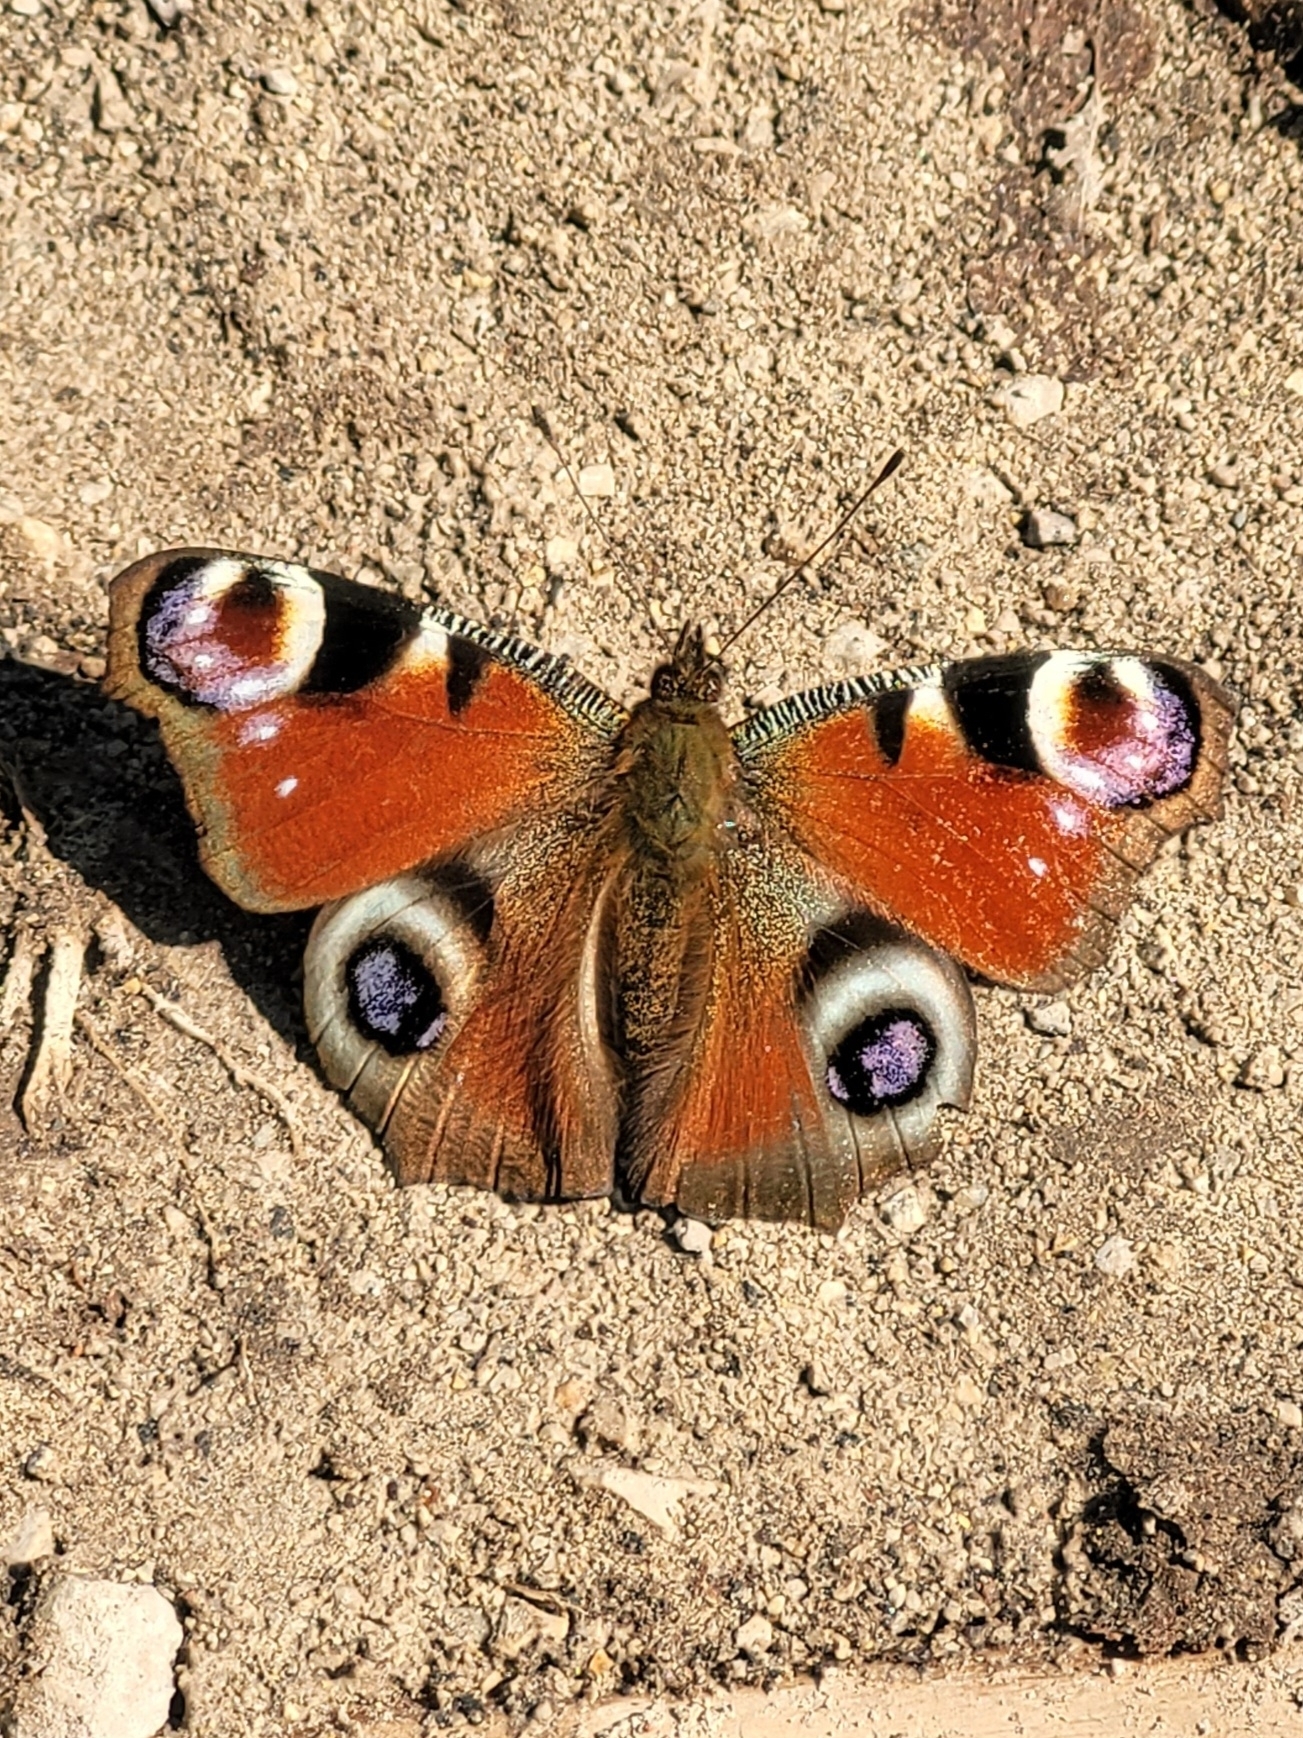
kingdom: Animalia
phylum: Arthropoda
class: Insecta
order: Lepidoptera
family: Nymphalidae
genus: Aglais
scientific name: Aglais io
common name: Peacock
